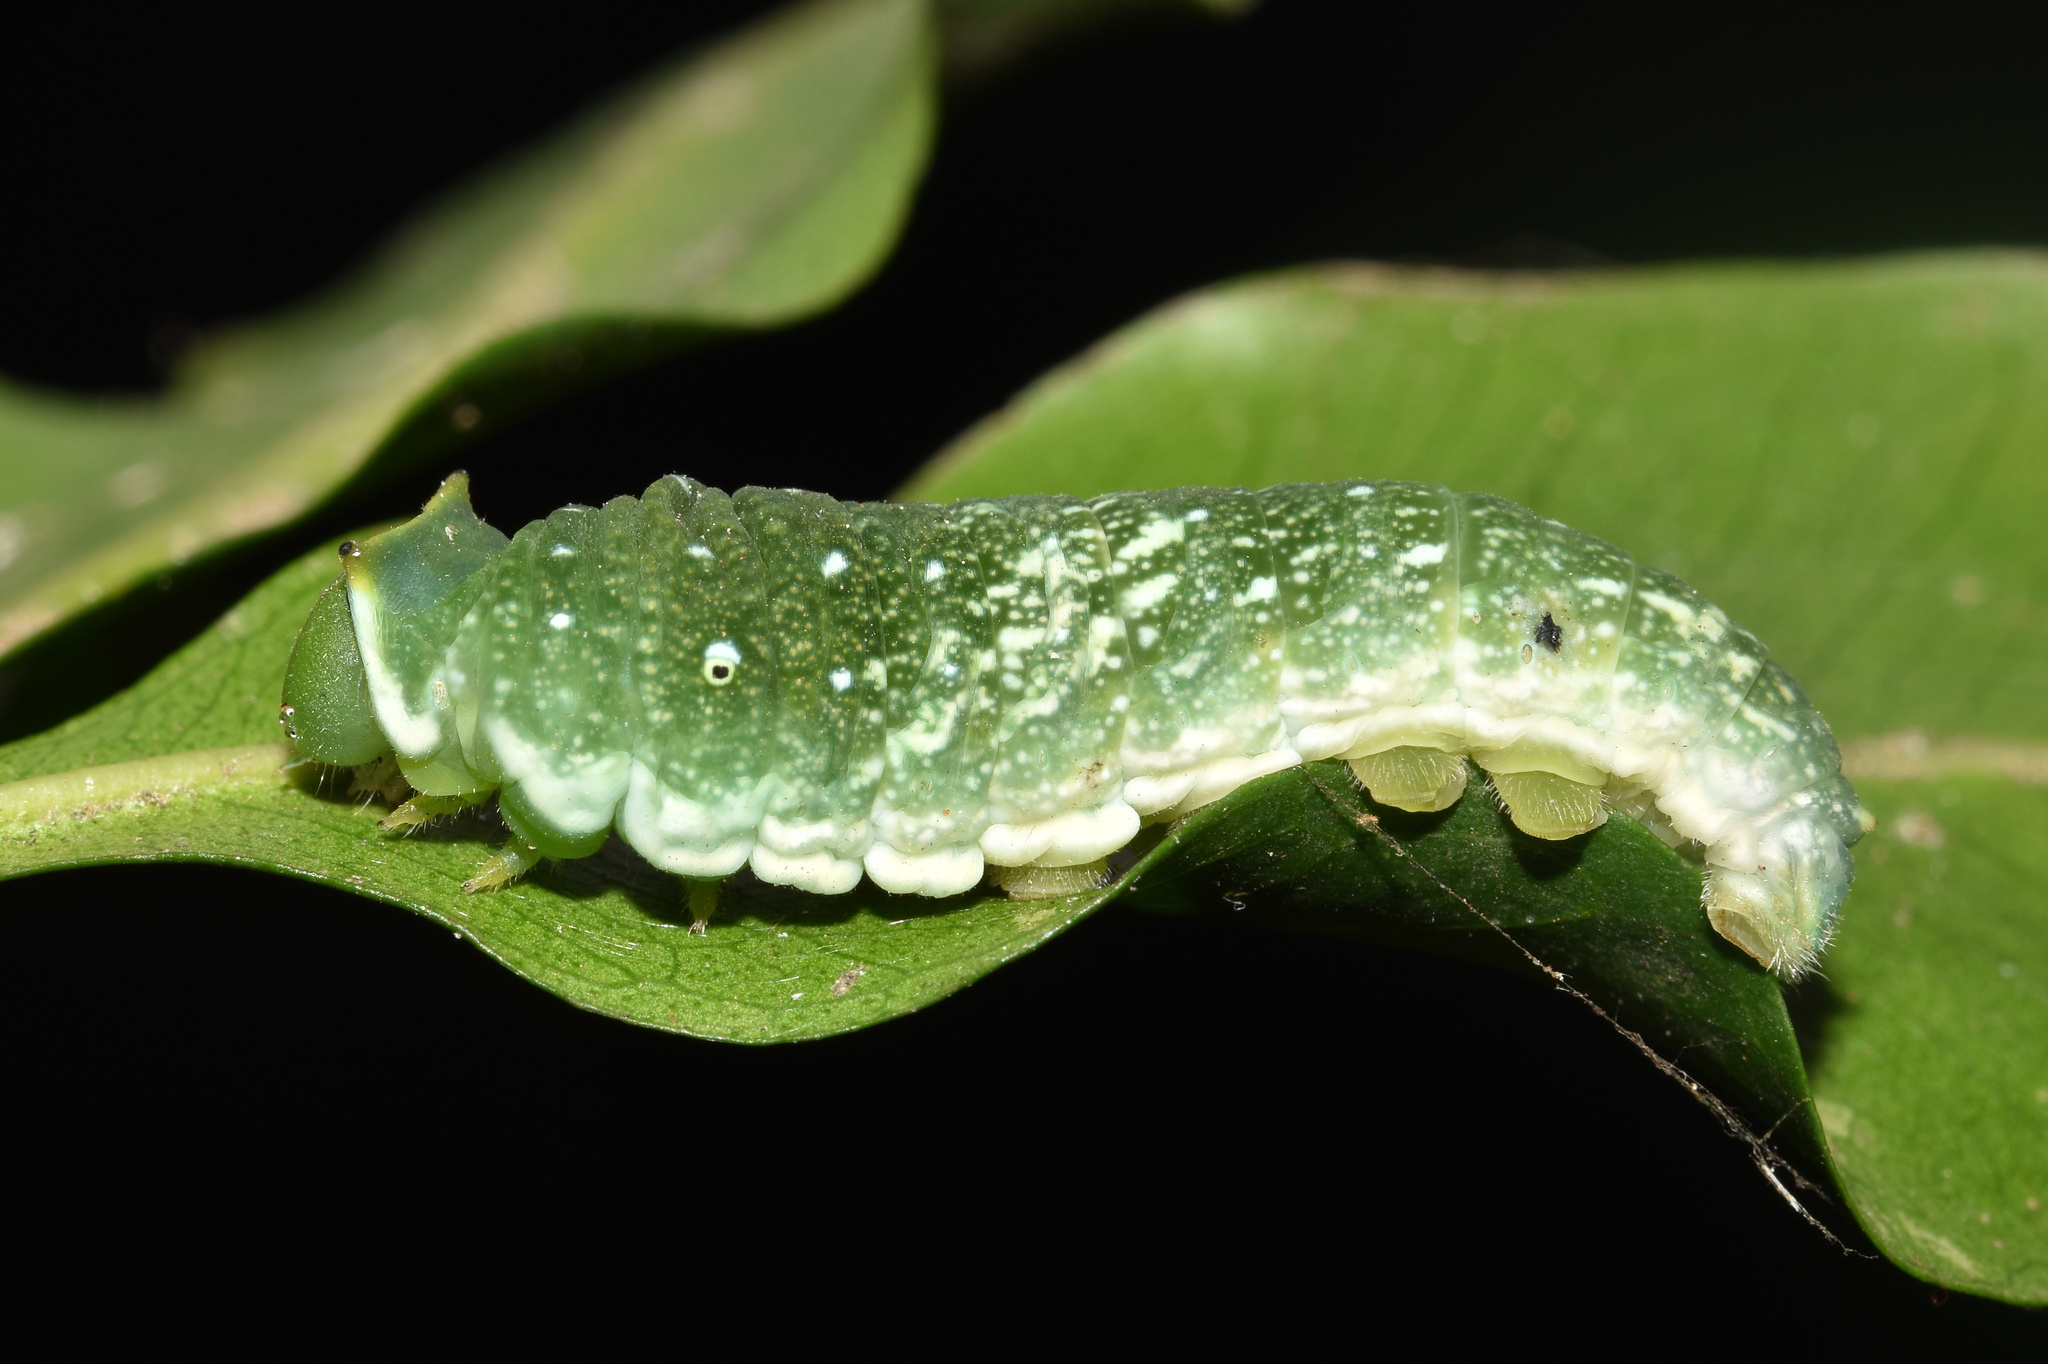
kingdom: Animalia
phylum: Arthropoda
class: Insecta
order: Lepidoptera
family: Papilionidae
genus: Papilio
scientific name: Papilio dardanus
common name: Flying handkerchief
